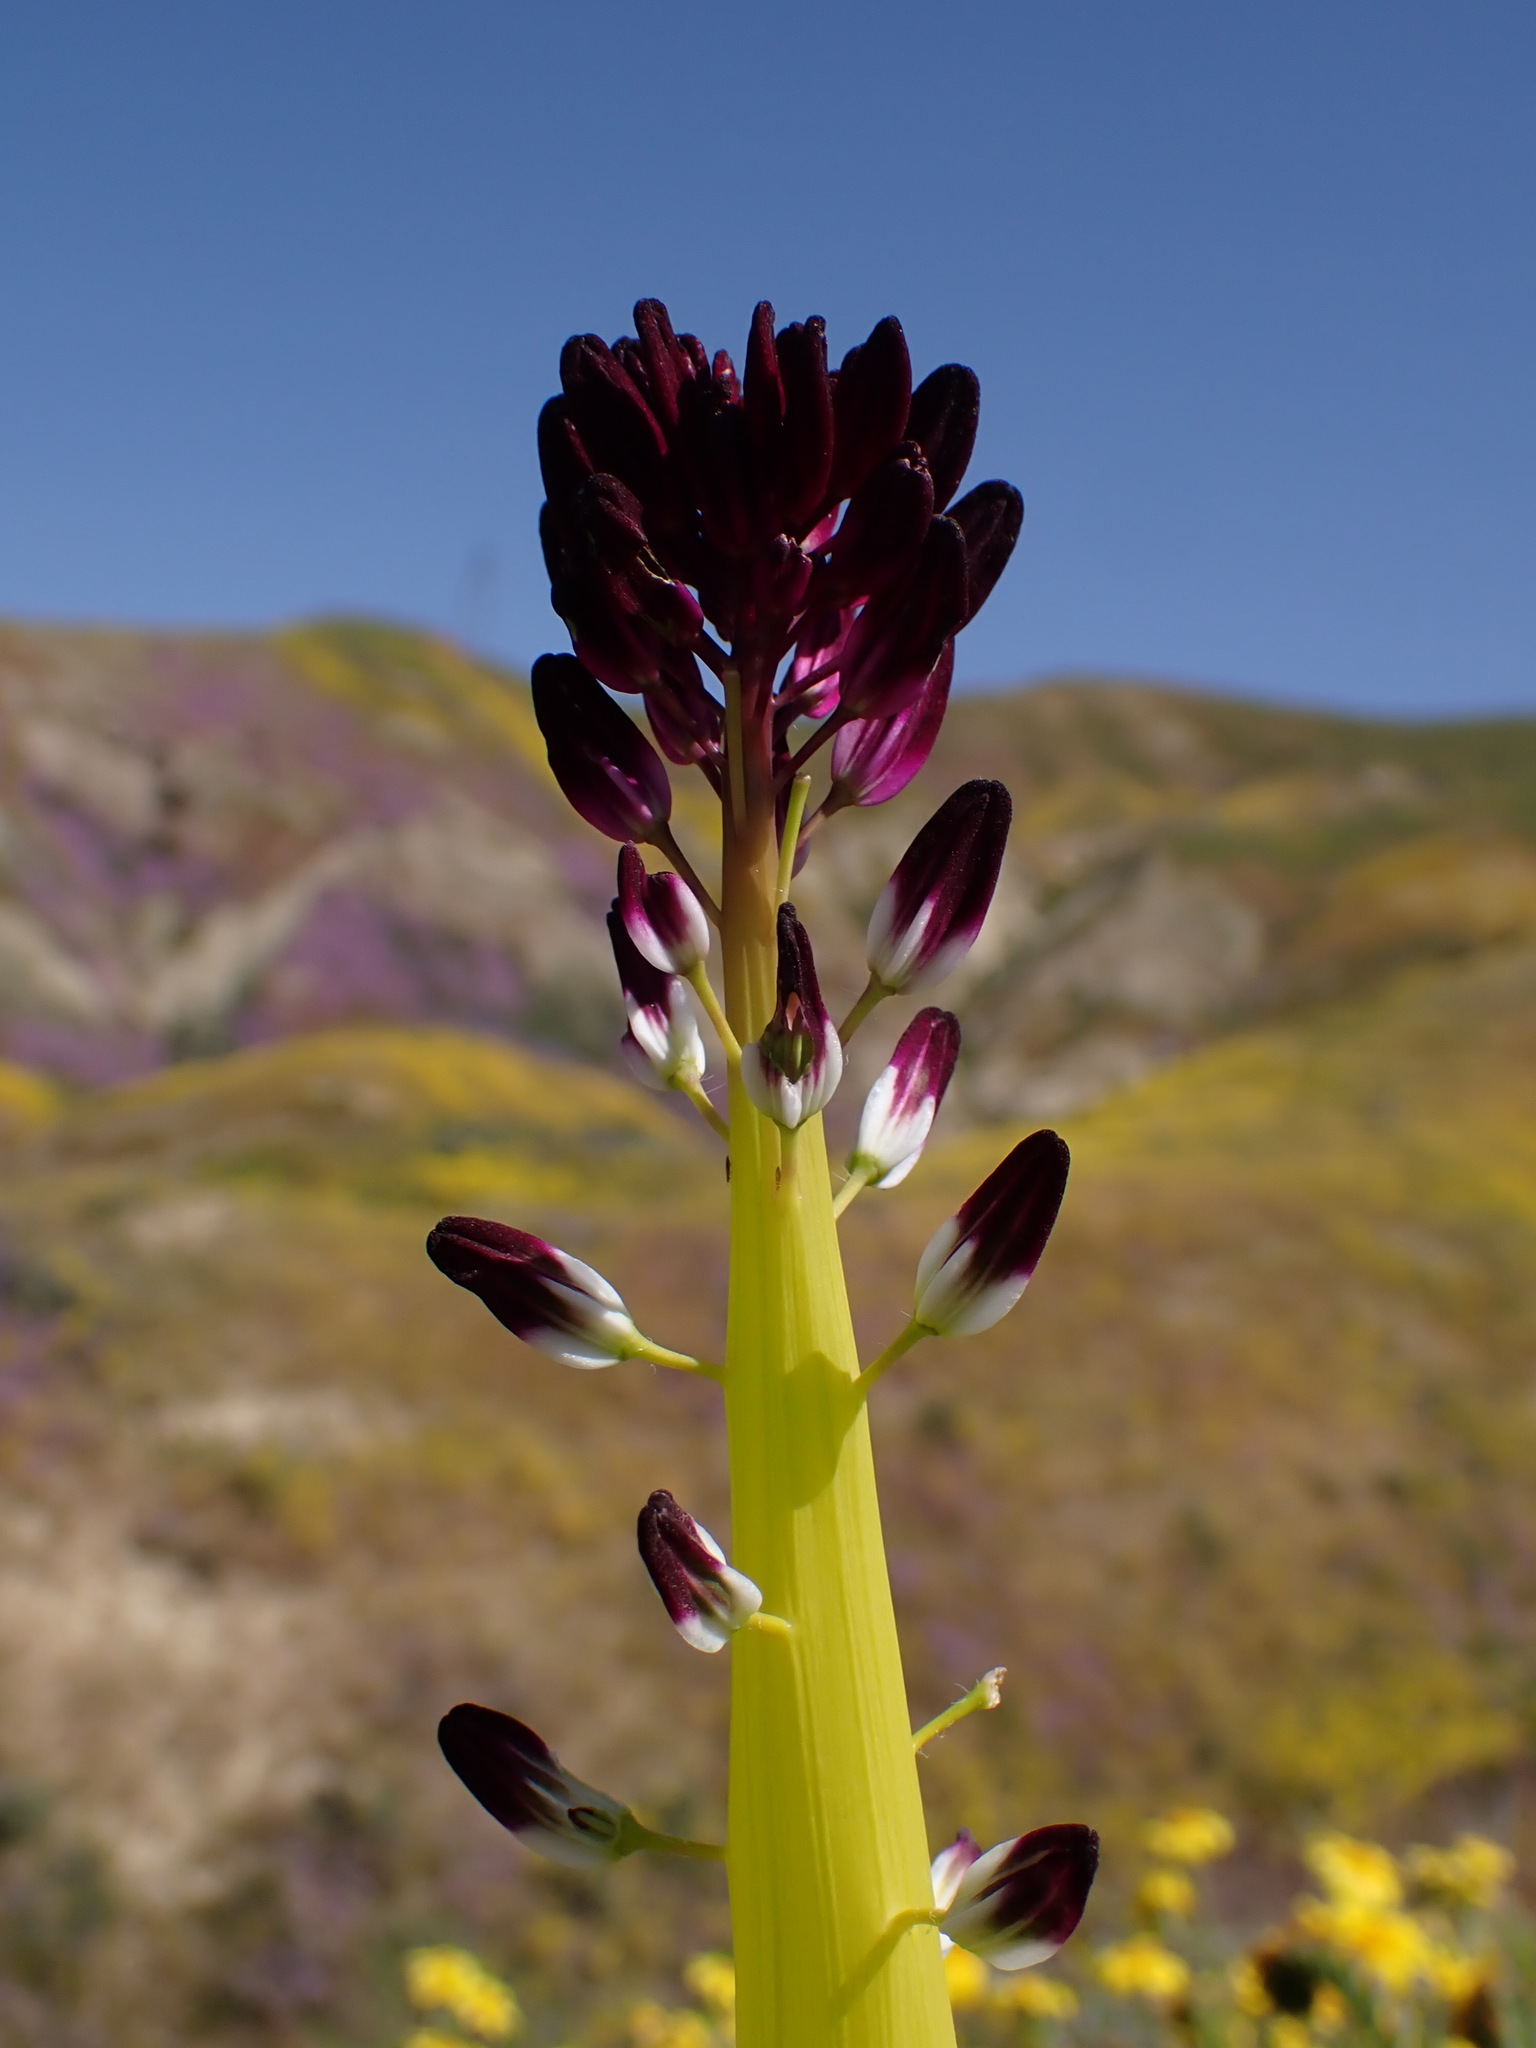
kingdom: Plantae
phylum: Tracheophyta
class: Magnoliopsida
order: Brassicales
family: Brassicaceae
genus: Streptanthus
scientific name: Streptanthus inflatus
